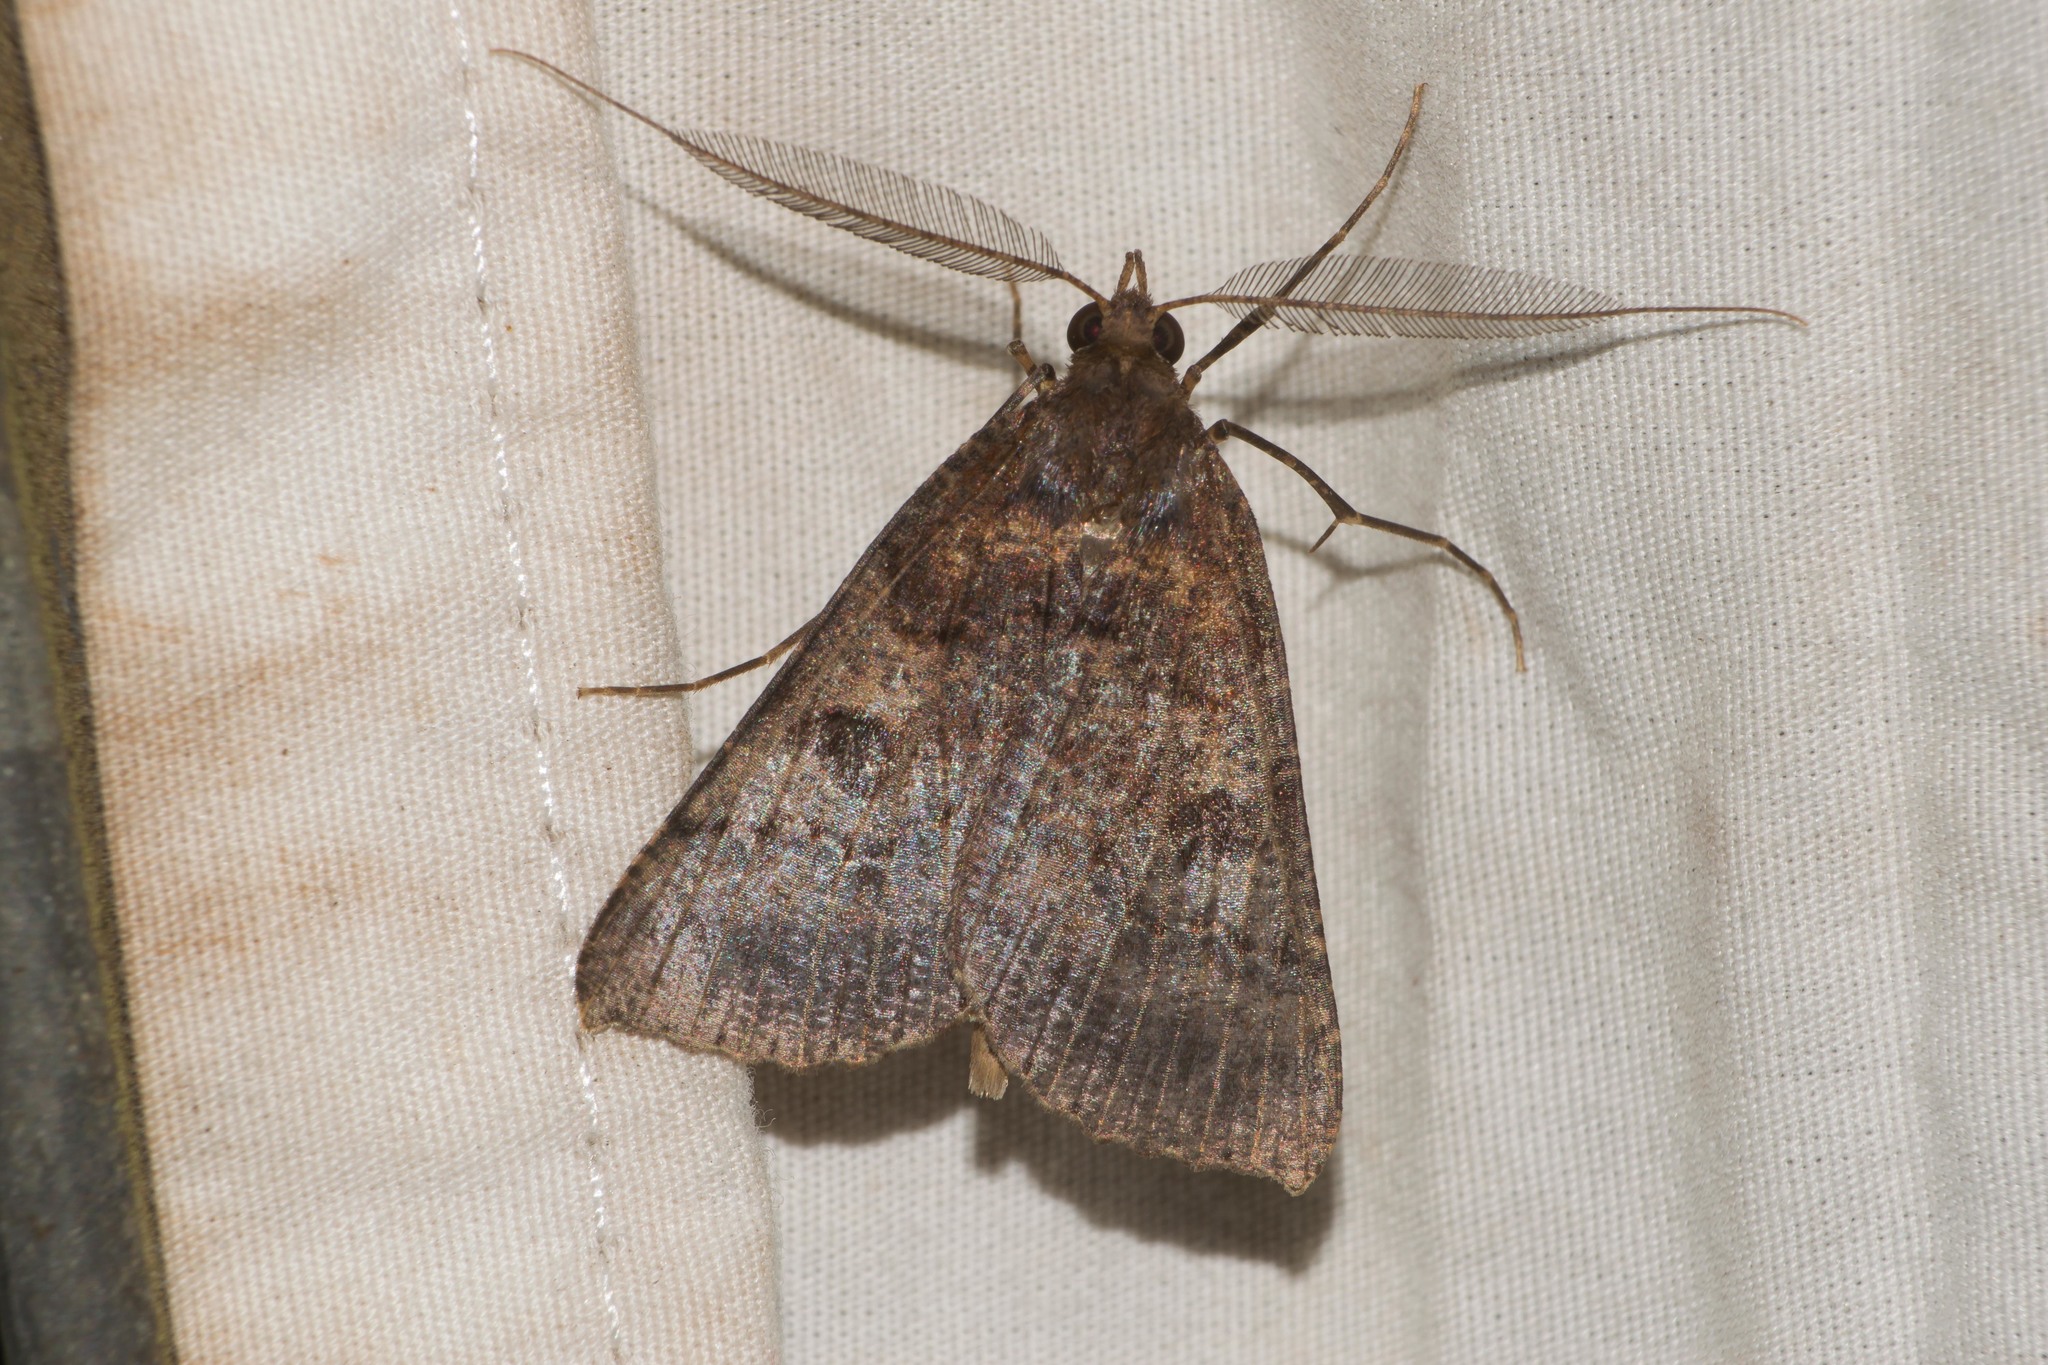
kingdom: Animalia
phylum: Arthropoda
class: Insecta
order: Lepidoptera
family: Geometridae
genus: Scotorythra
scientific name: Scotorythra rara
